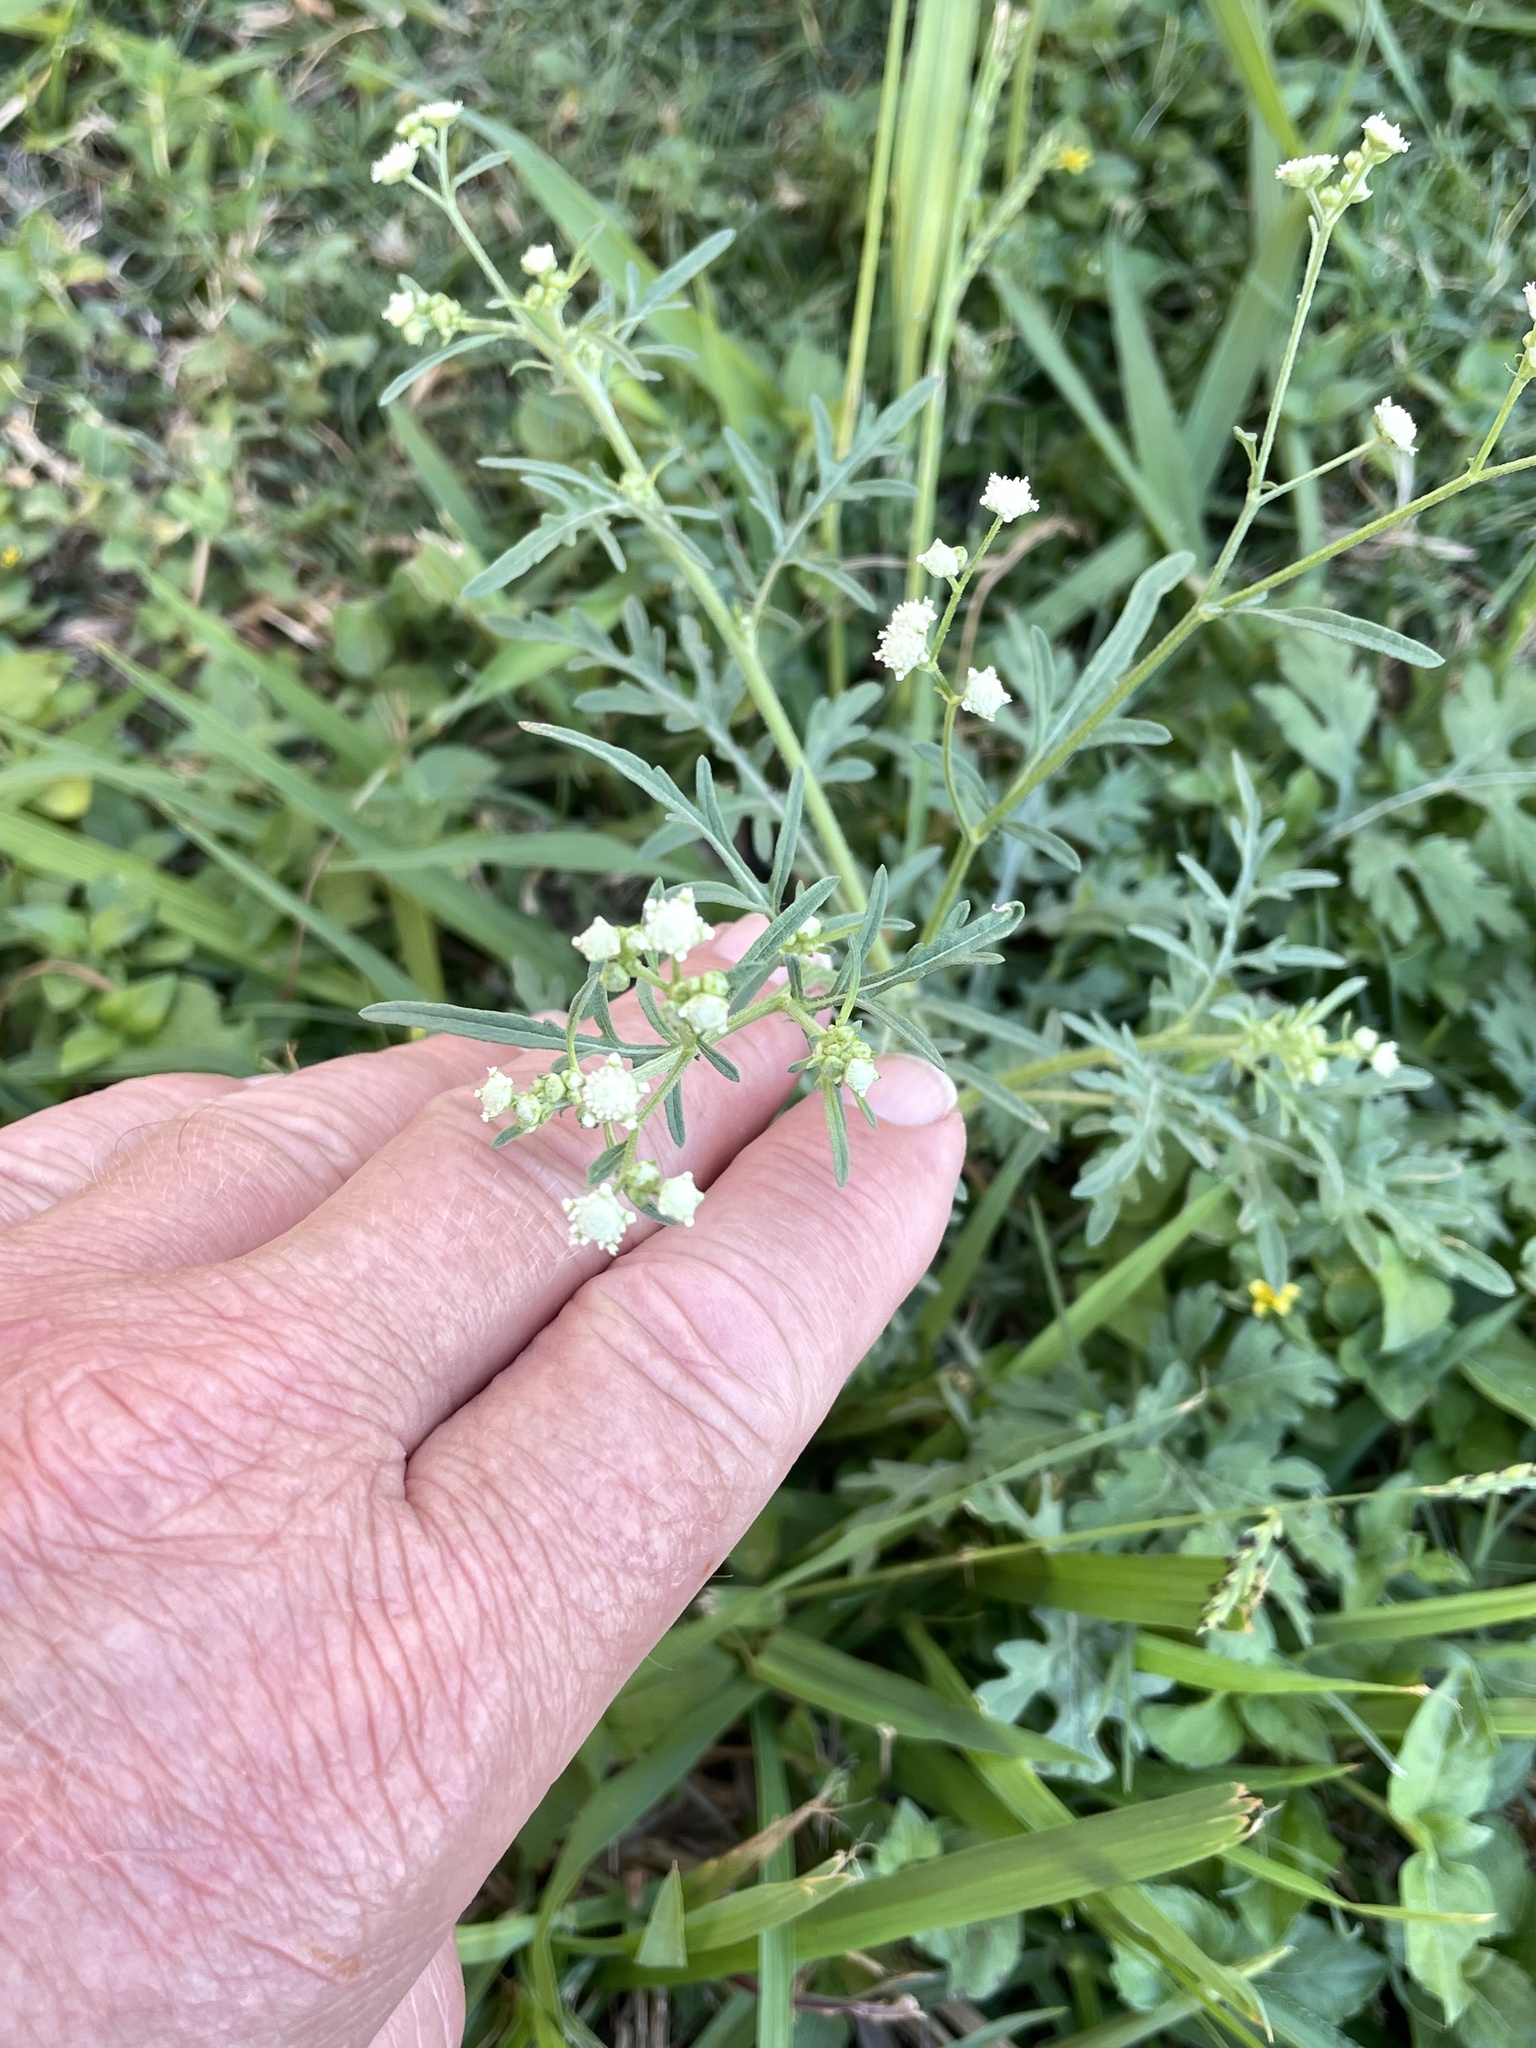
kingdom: Plantae
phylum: Tracheophyta
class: Magnoliopsida
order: Asterales
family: Asteraceae
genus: Parthenium
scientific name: Parthenium hysterophorus
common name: Santa maria feverfew
